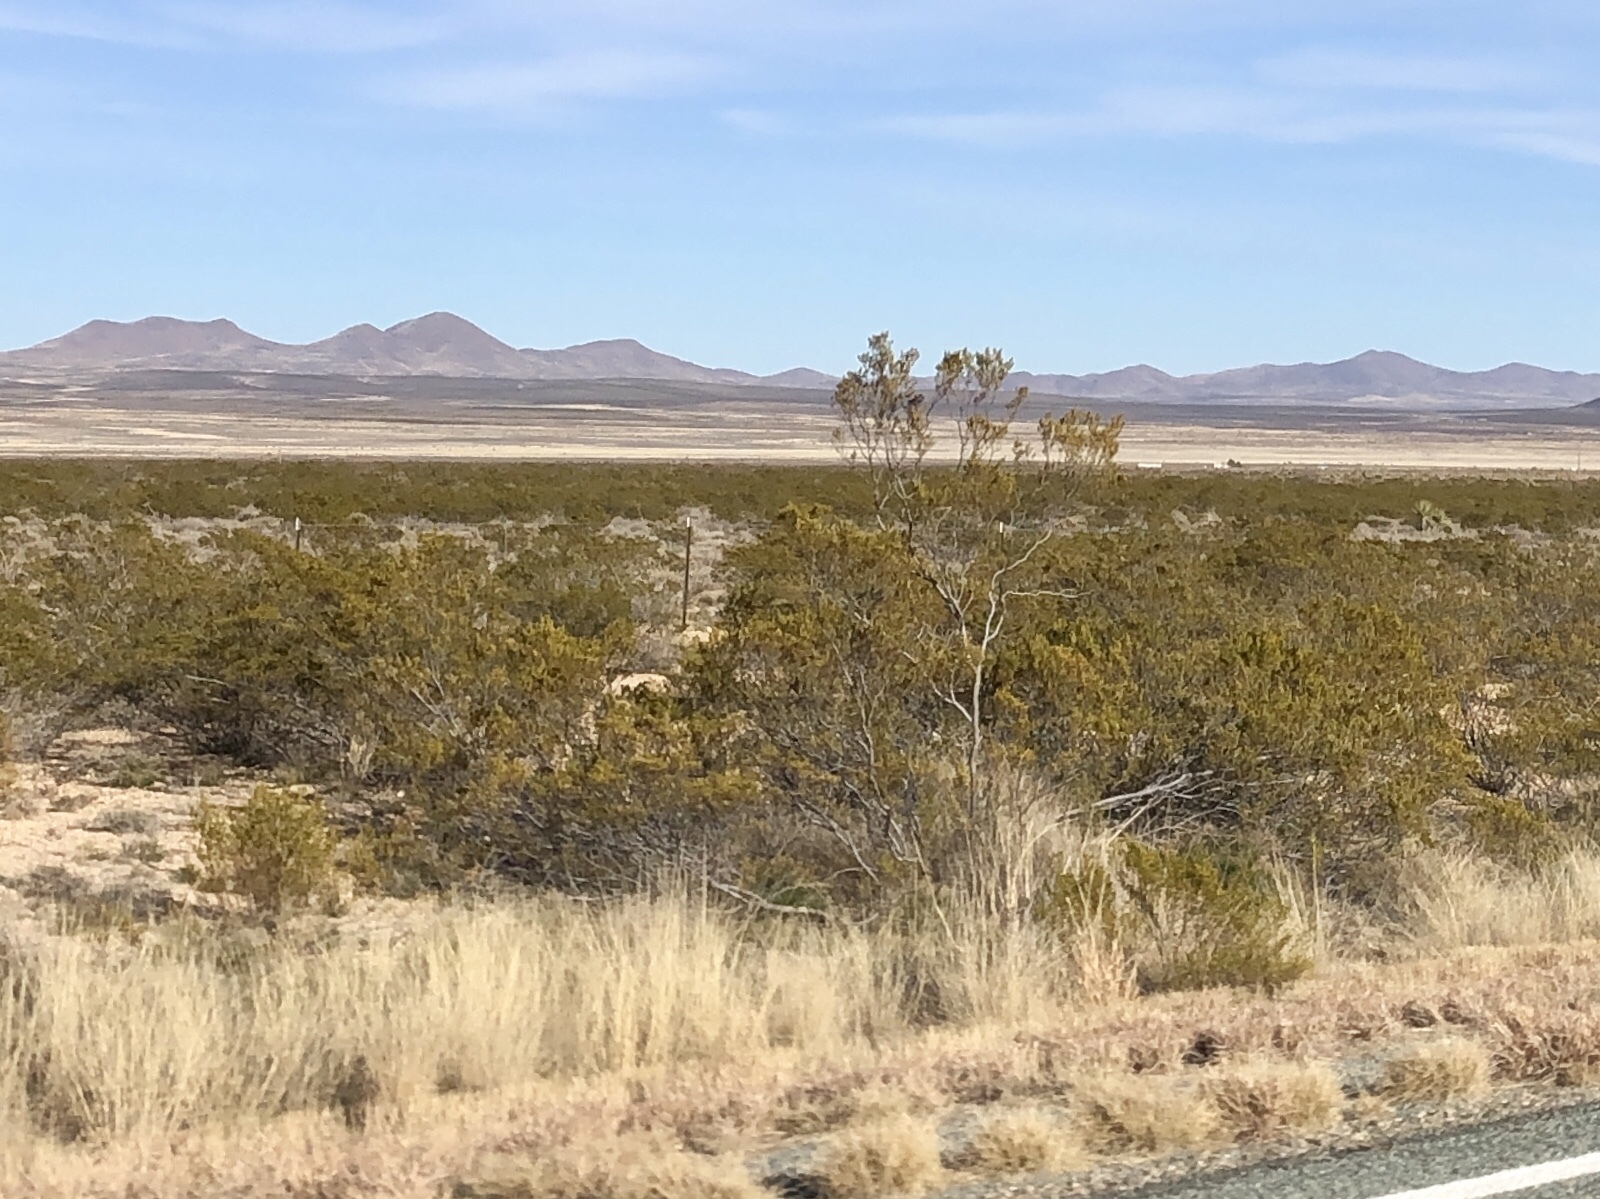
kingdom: Plantae
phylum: Tracheophyta
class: Magnoliopsida
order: Zygophyllales
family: Zygophyllaceae
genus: Larrea
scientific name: Larrea tridentata
